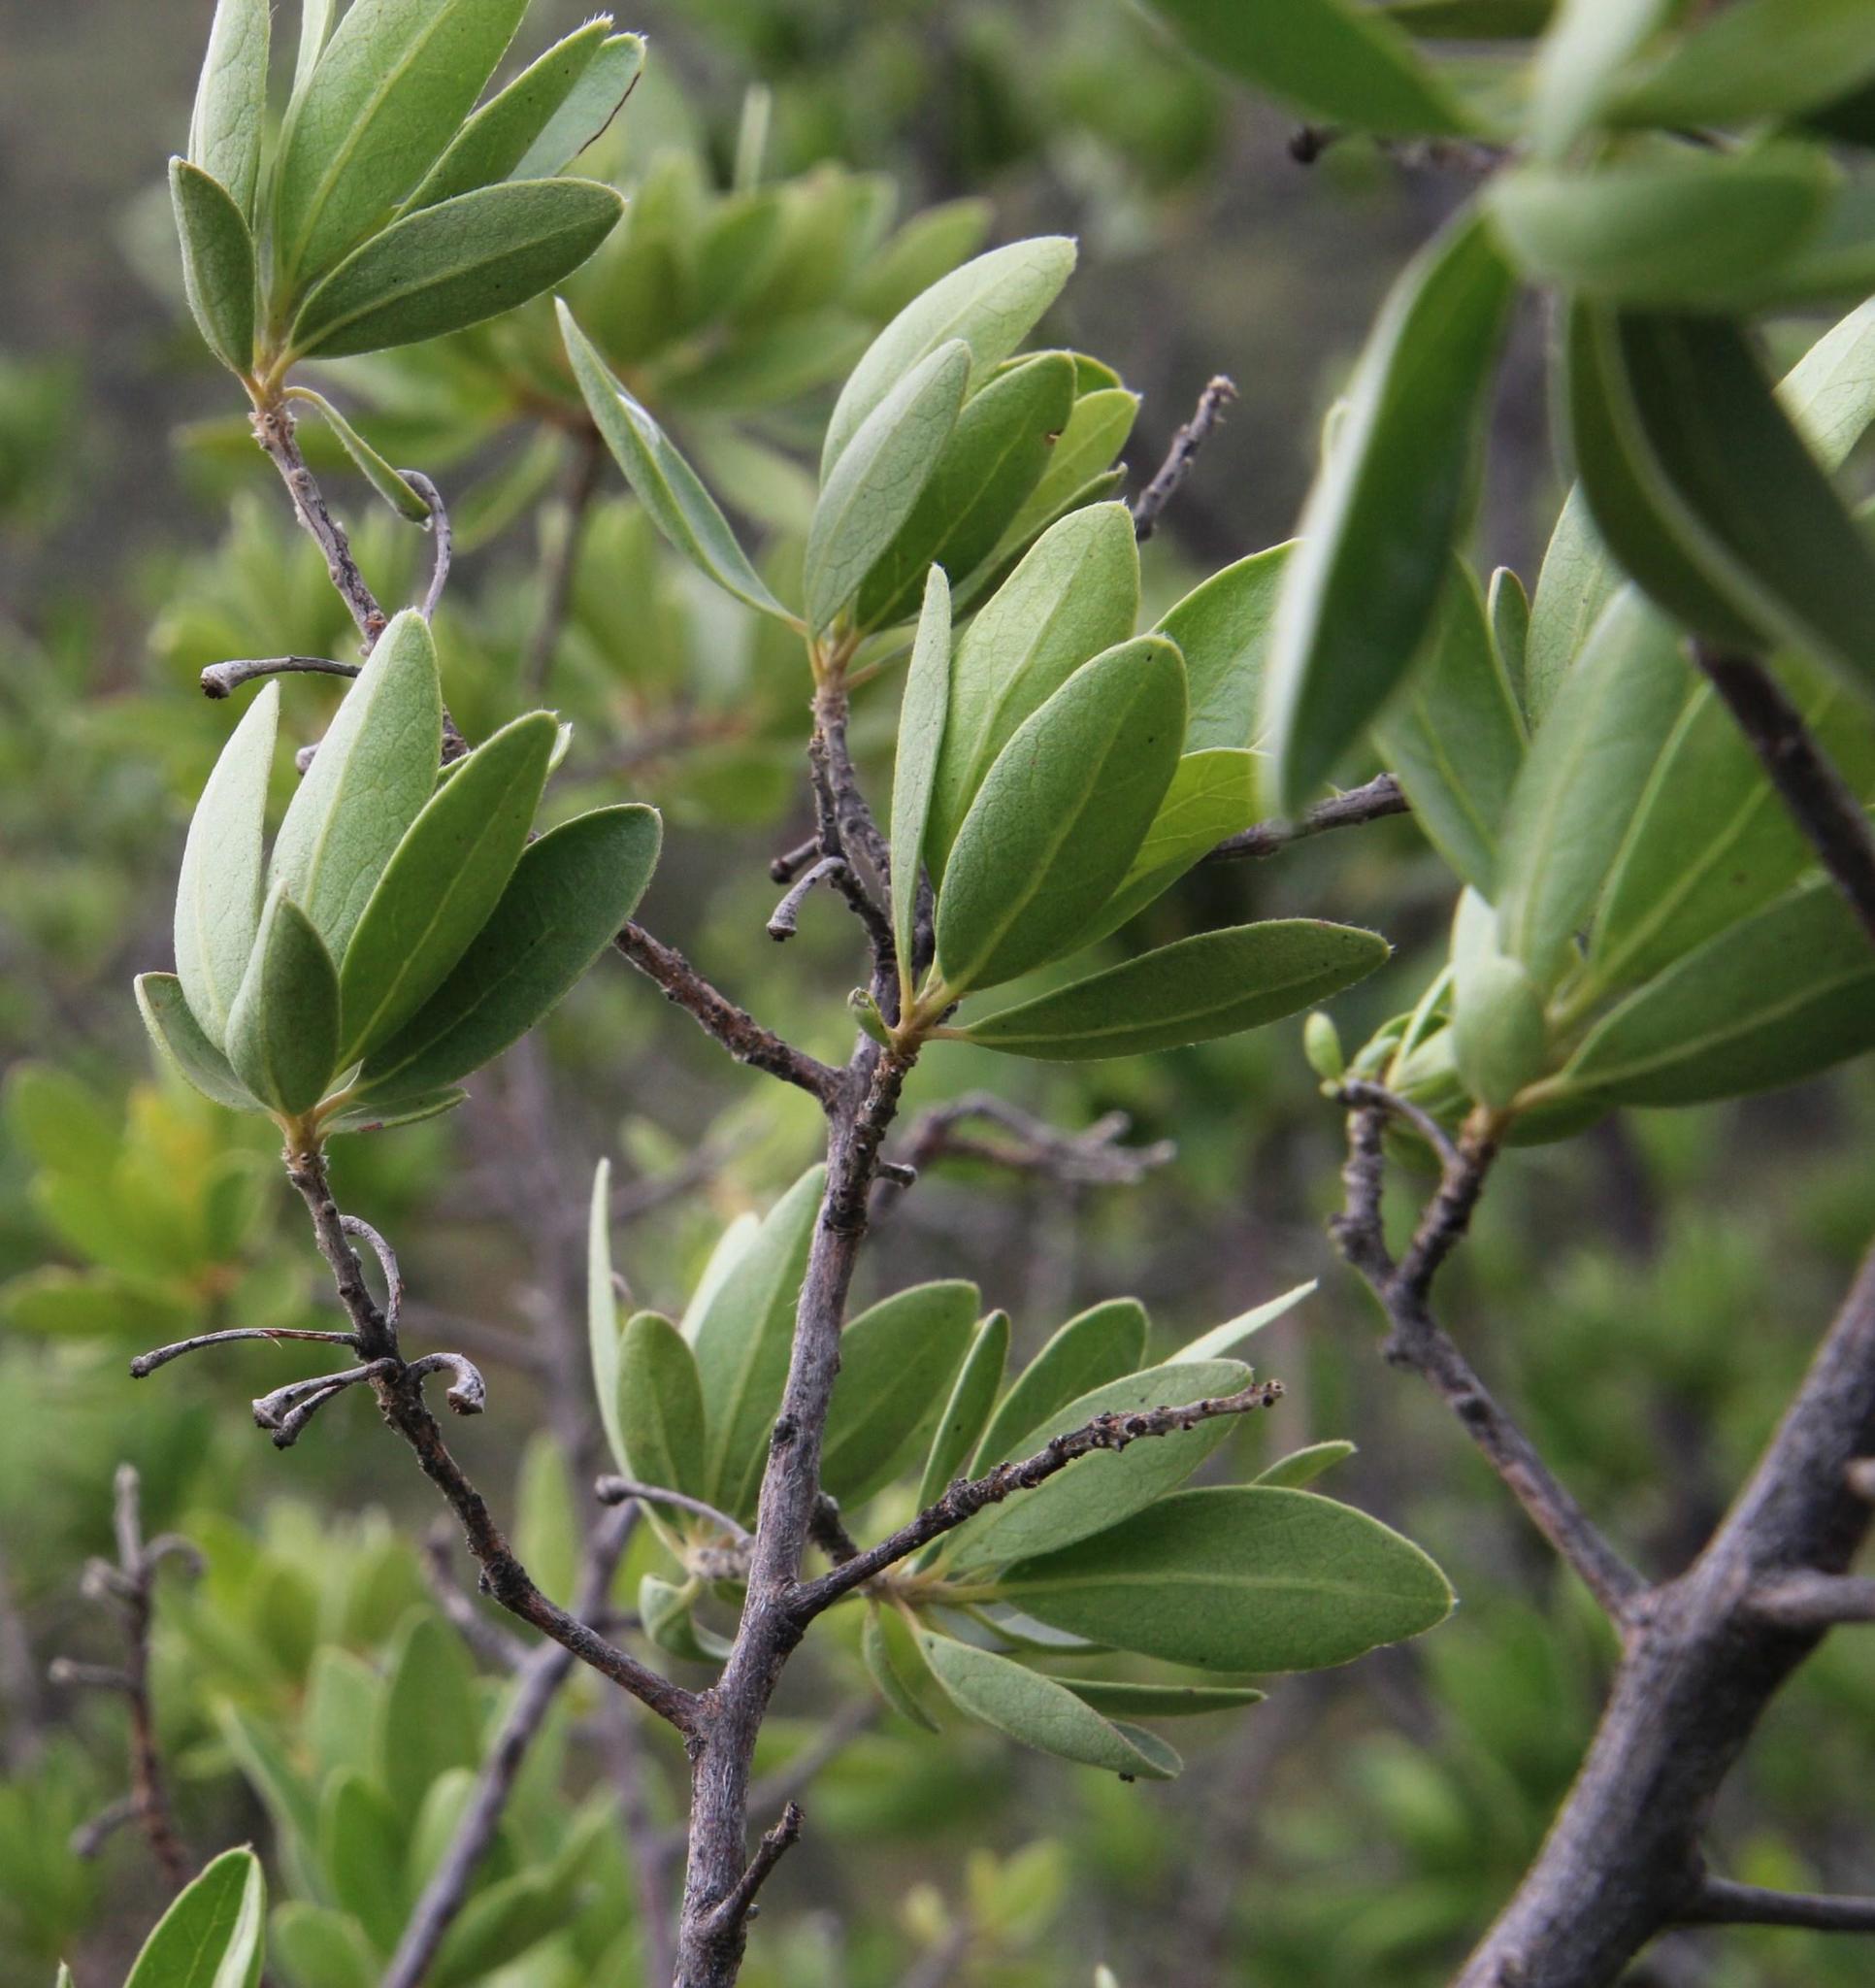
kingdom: Plantae
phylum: Tracheophyta
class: Magnoliopsida
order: Ericales
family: Ebenaceae
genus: Diospyros
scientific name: Diospyros lycioides
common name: Red star apple
